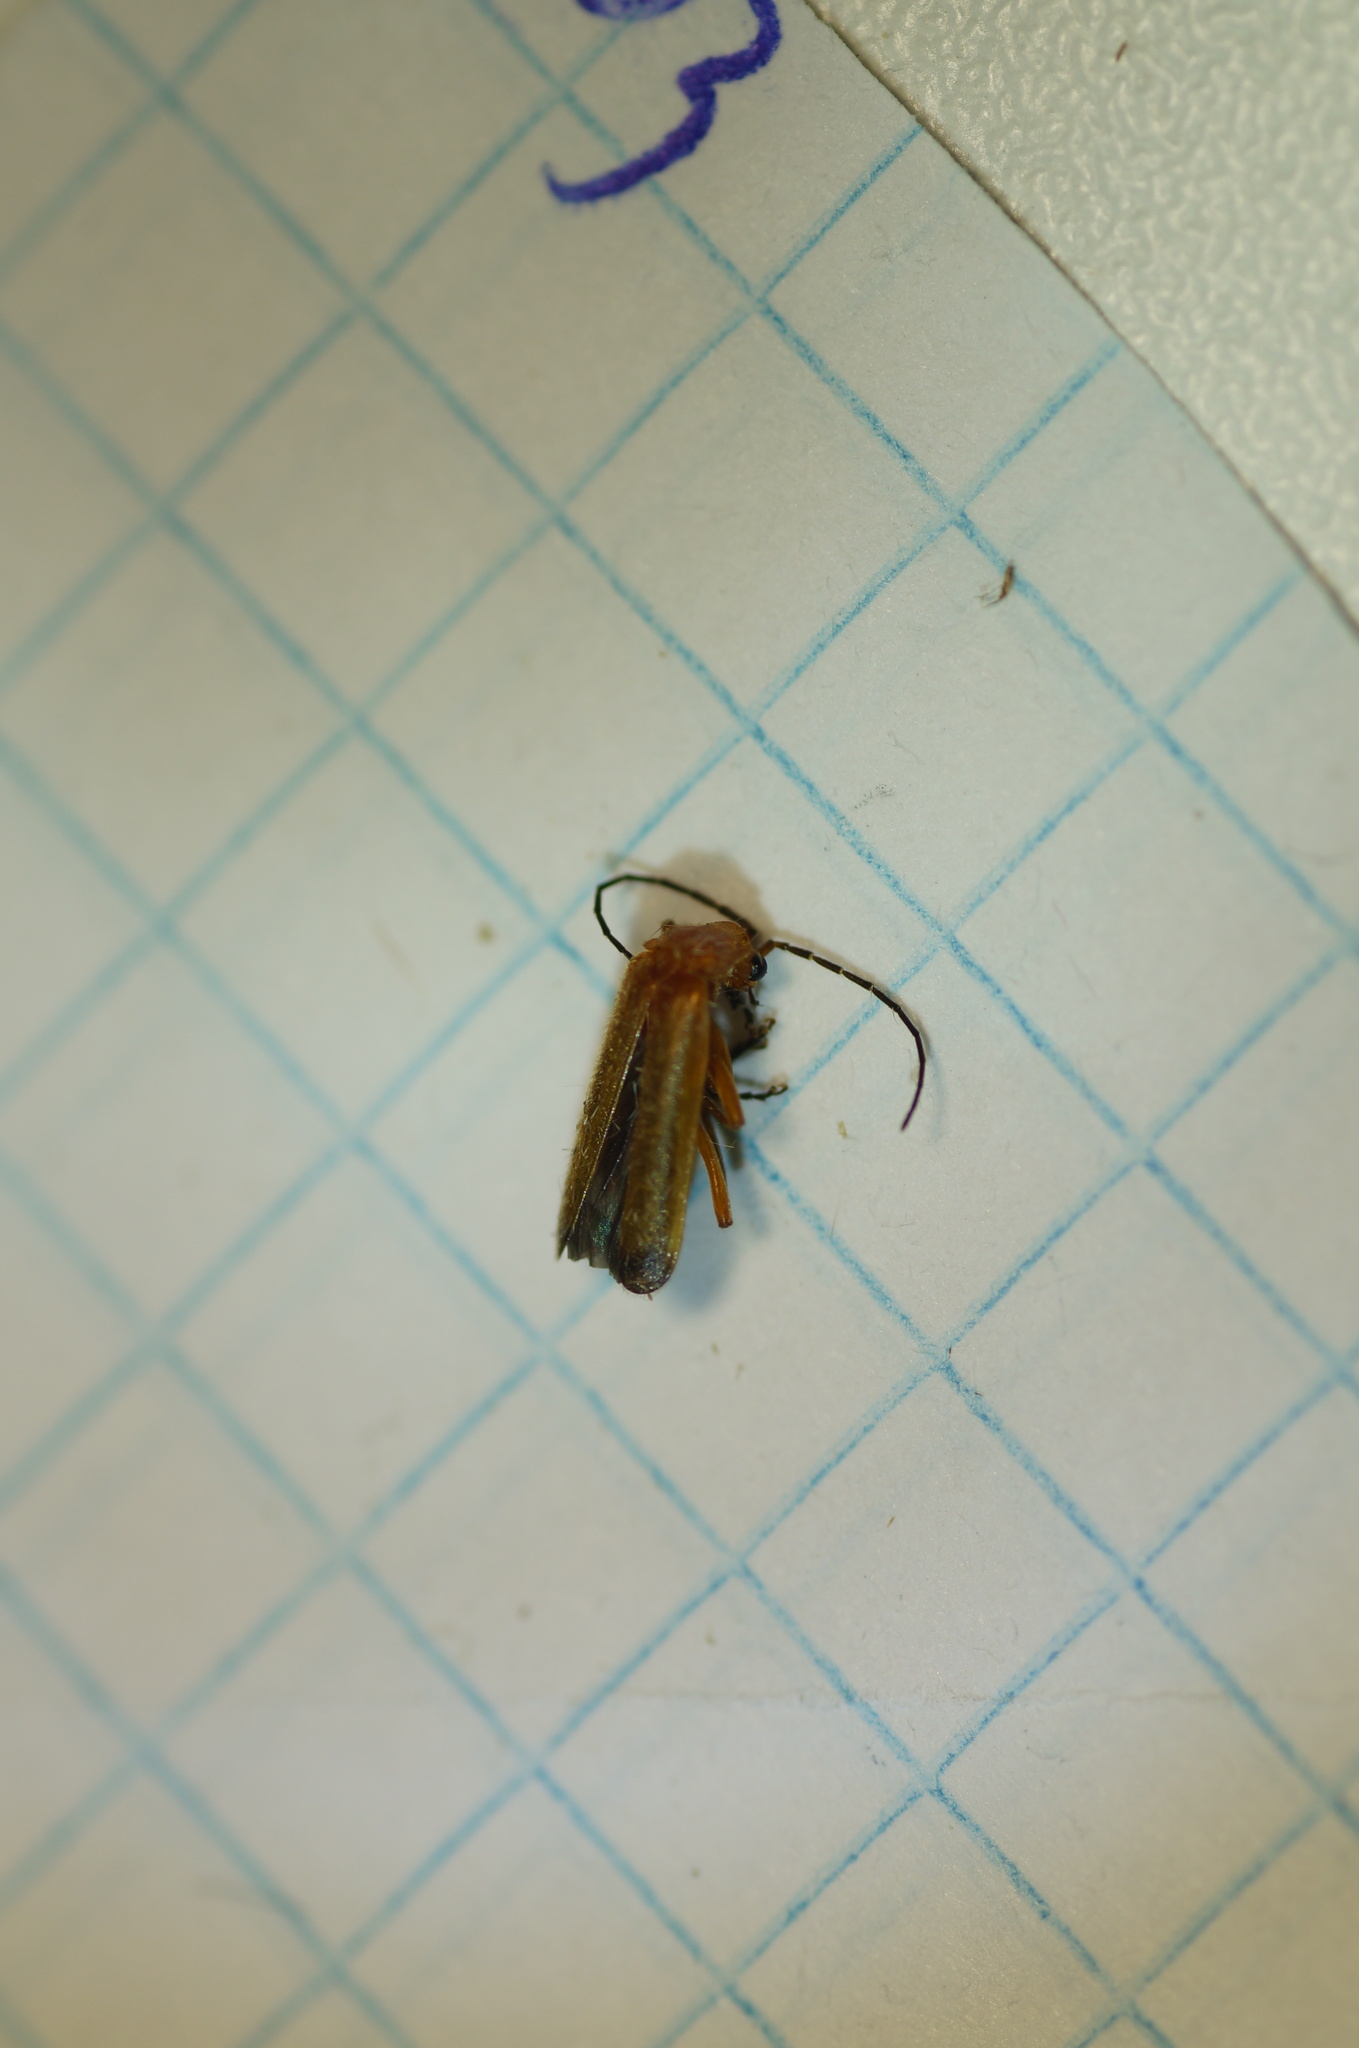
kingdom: Animalia
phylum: Arthropoda
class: Insecta
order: Coleoptera
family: Cantharidae
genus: Rhagonycha
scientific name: Rhagonycha fulva
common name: Common red soldier beetle
